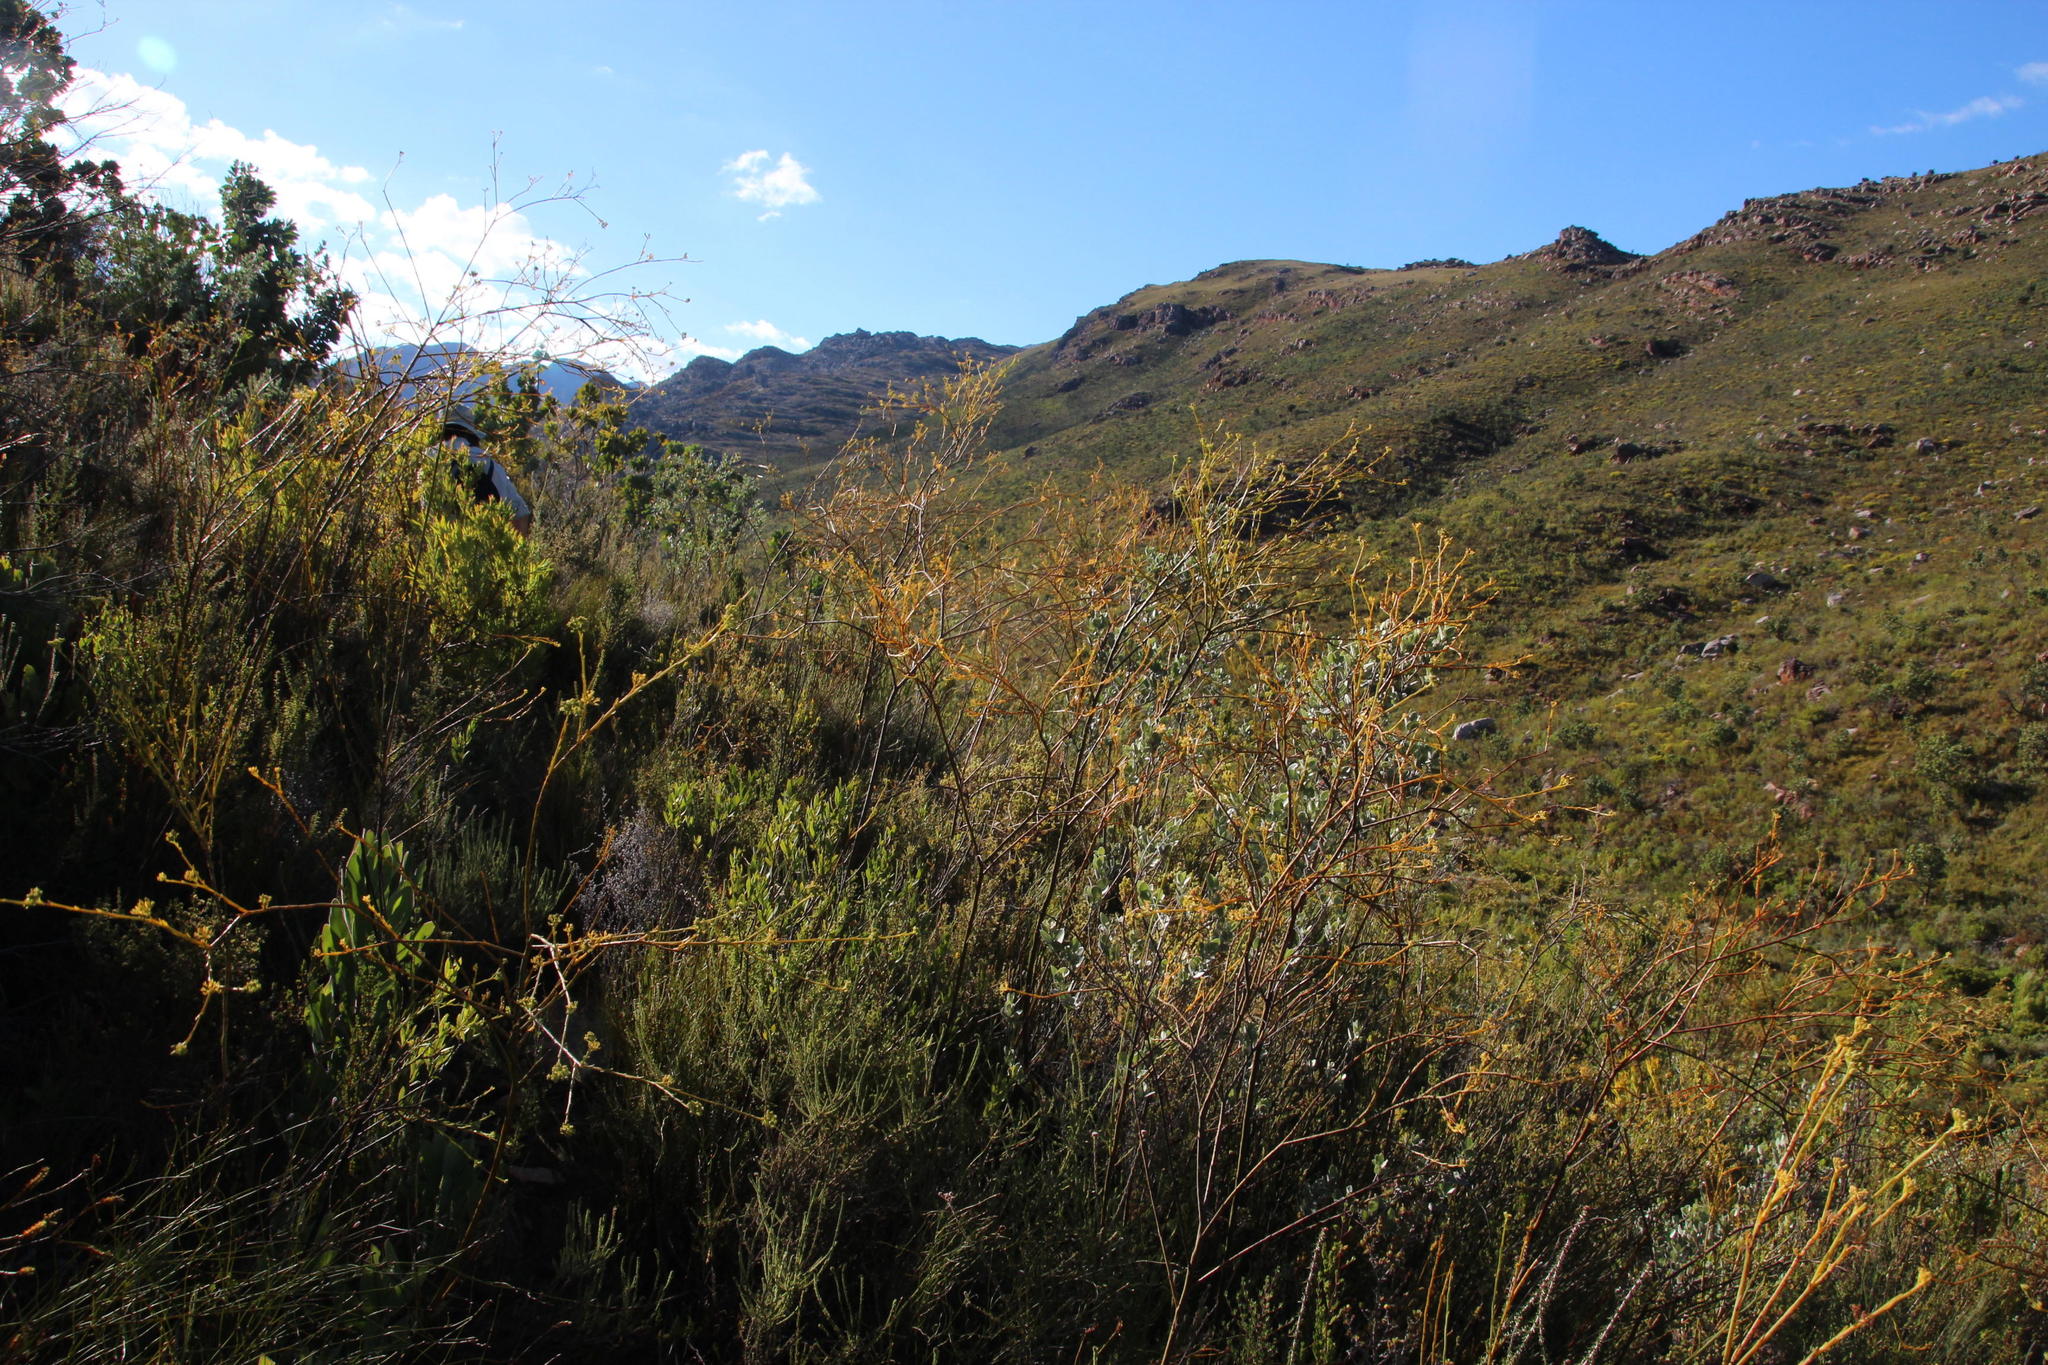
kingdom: Plantae
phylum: Tracheophyta
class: Magnoliopsida
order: Santalales
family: Thesiaceae
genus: Thesium
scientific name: Thesium strictum
